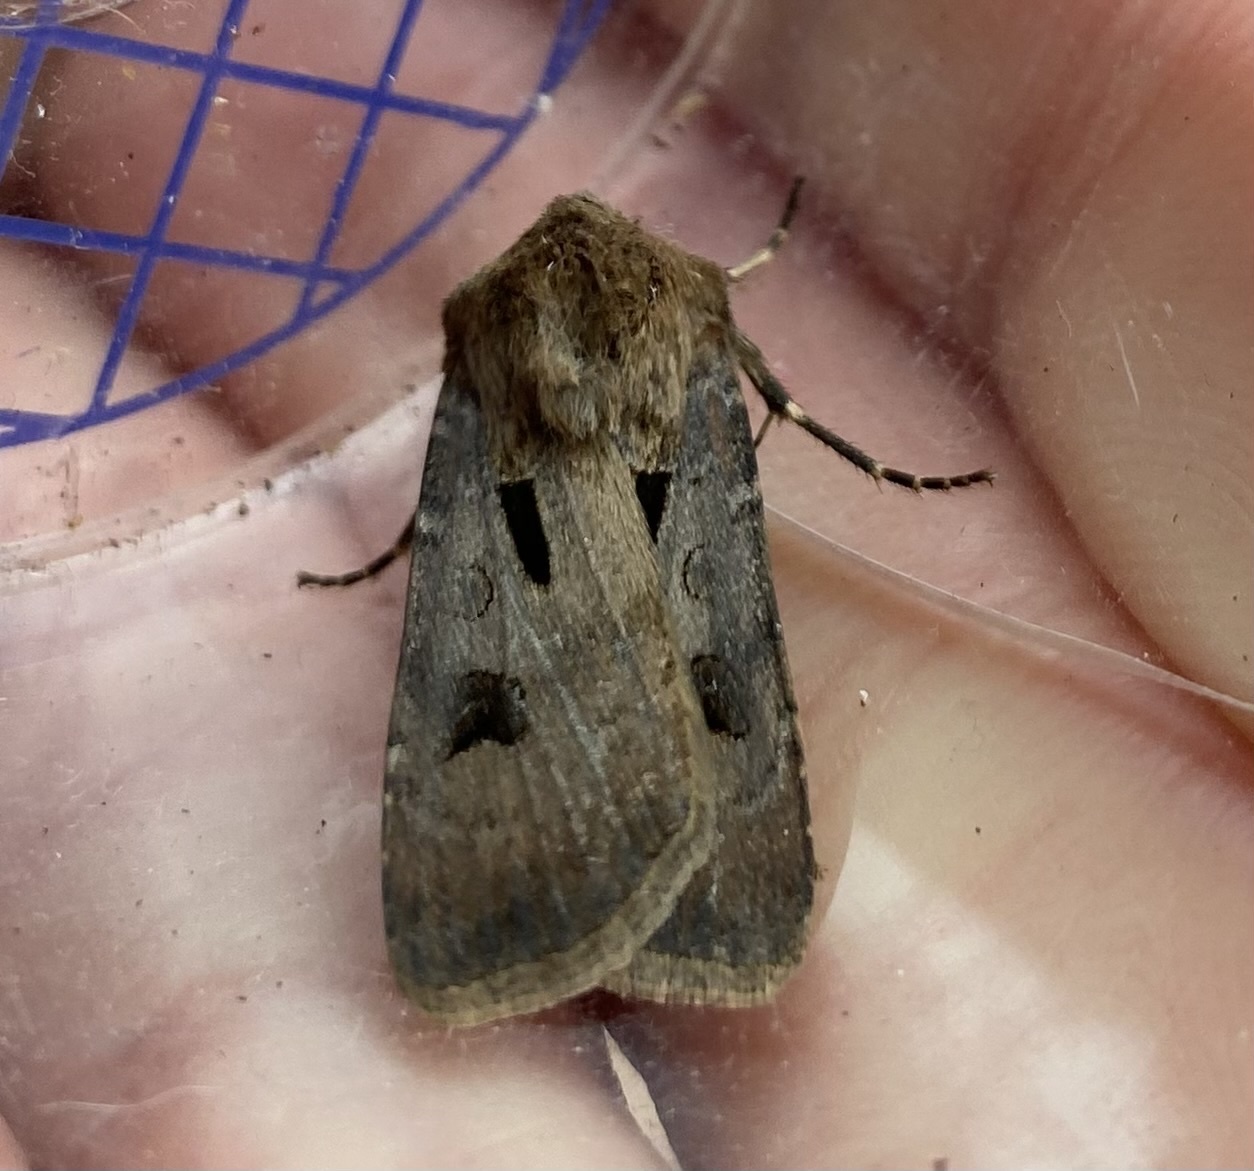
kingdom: Animalia
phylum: Arthropoda
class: Insecta
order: Lepidoptera
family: Noctuidae
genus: Agrotis
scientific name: Agrotis exclamationis
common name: Heart and dart
